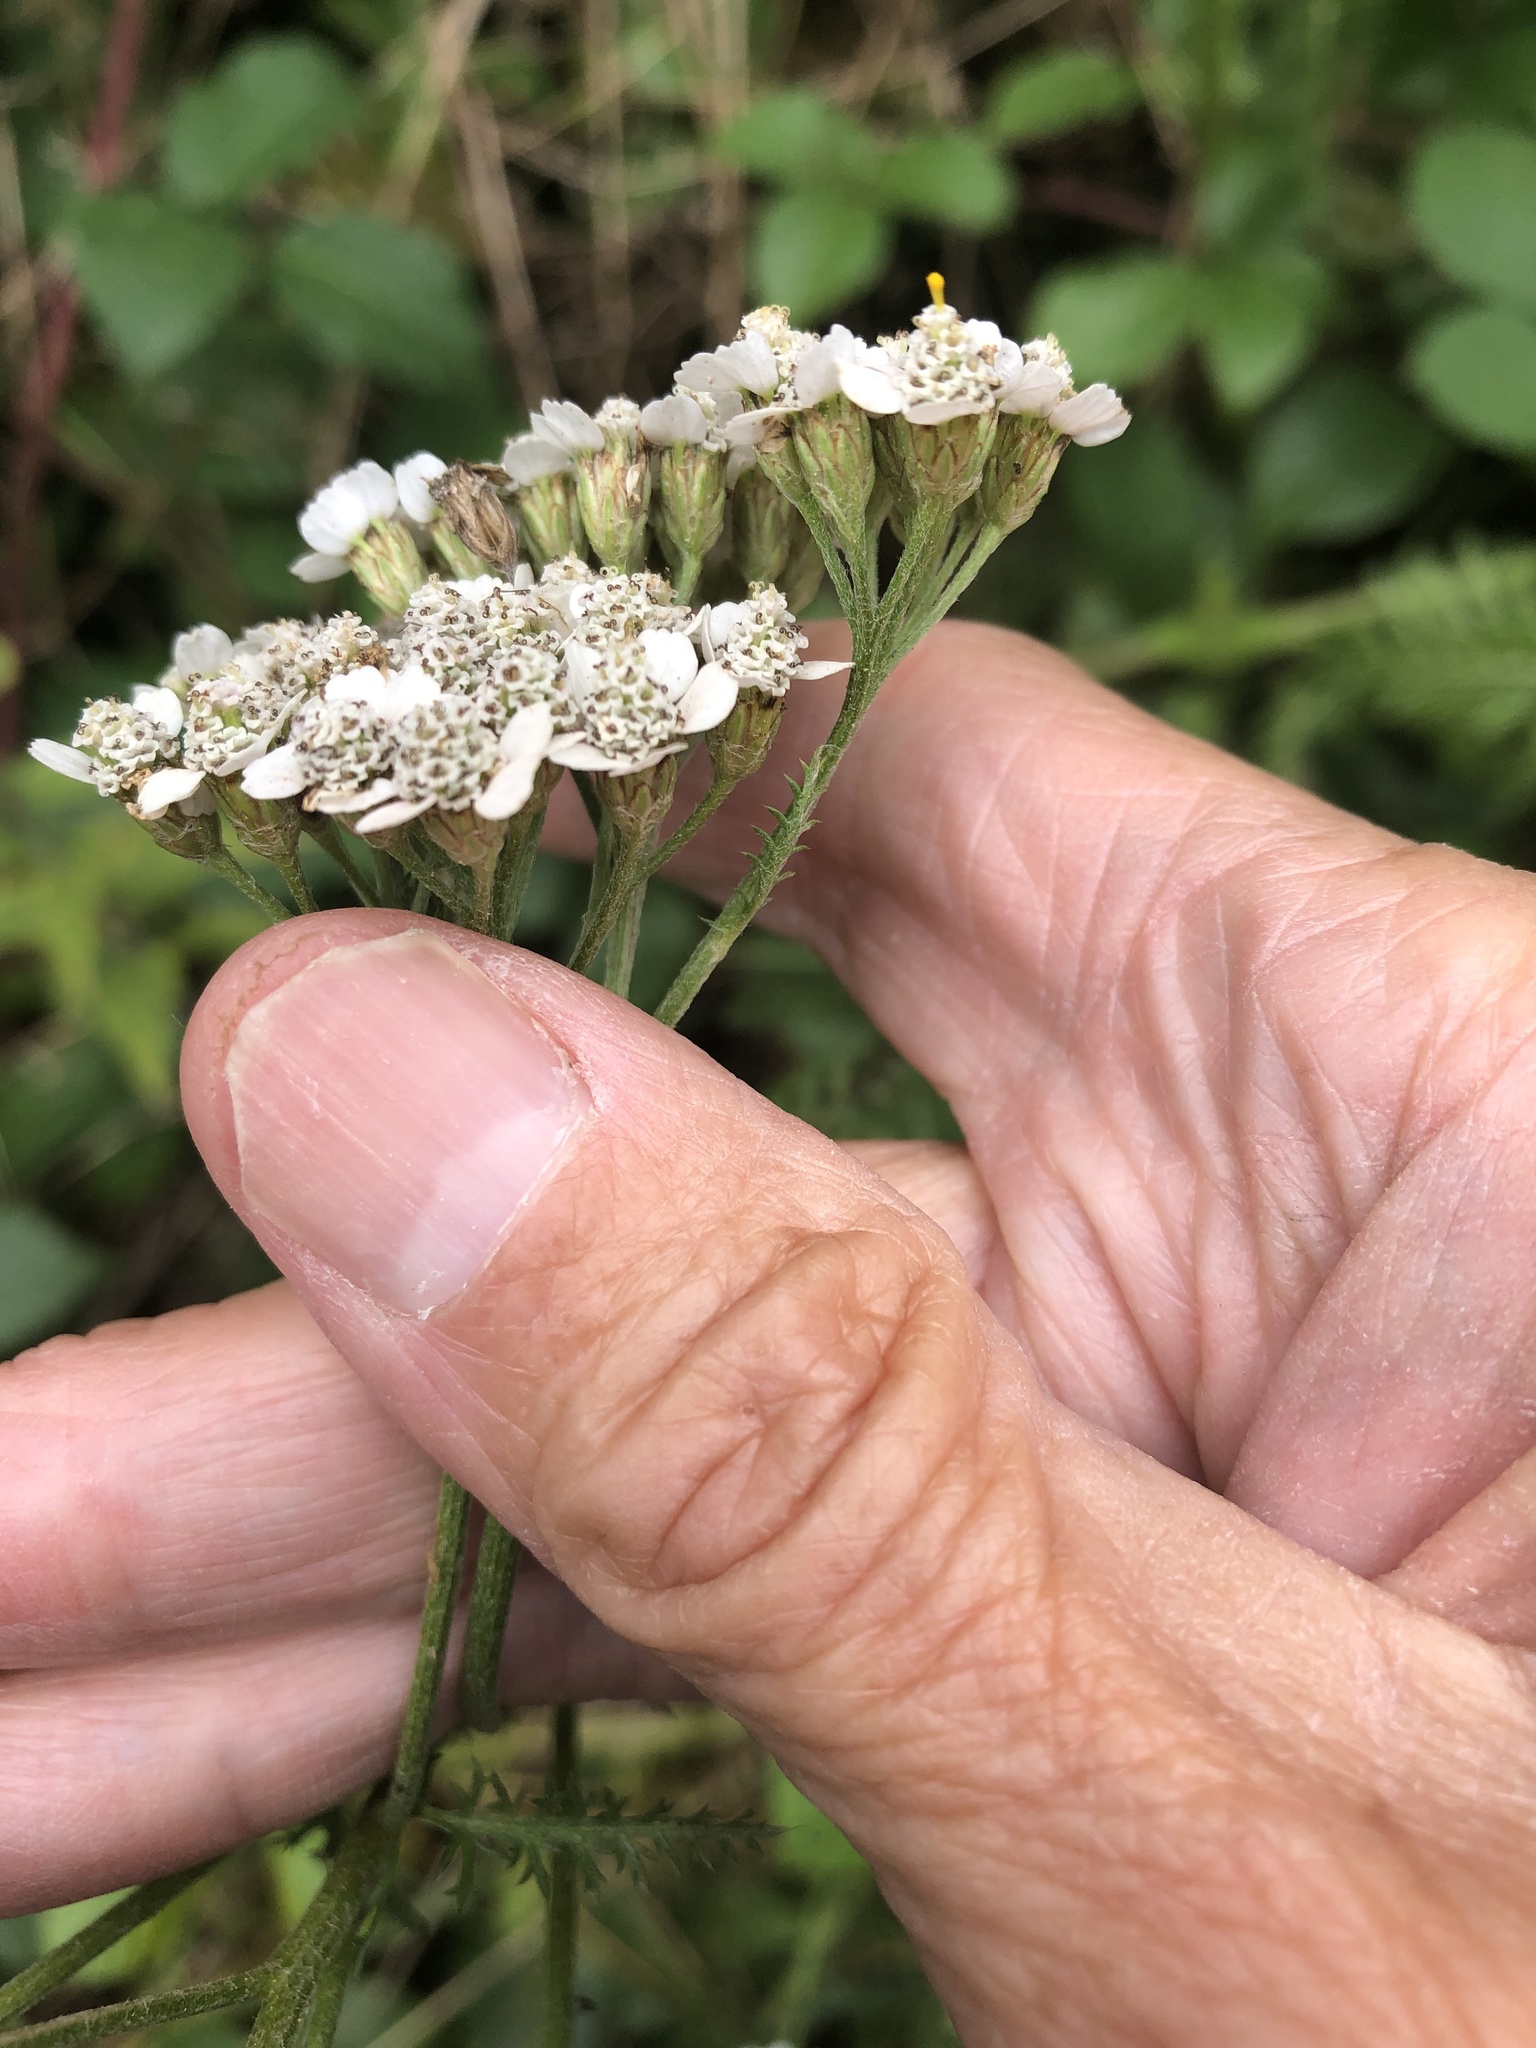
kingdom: Plantae
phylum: Tracheophyta
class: Magnoliopsida
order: Asterales
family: Asteraceae
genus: Achillea
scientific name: Achillea millefolium
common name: Yarrow
